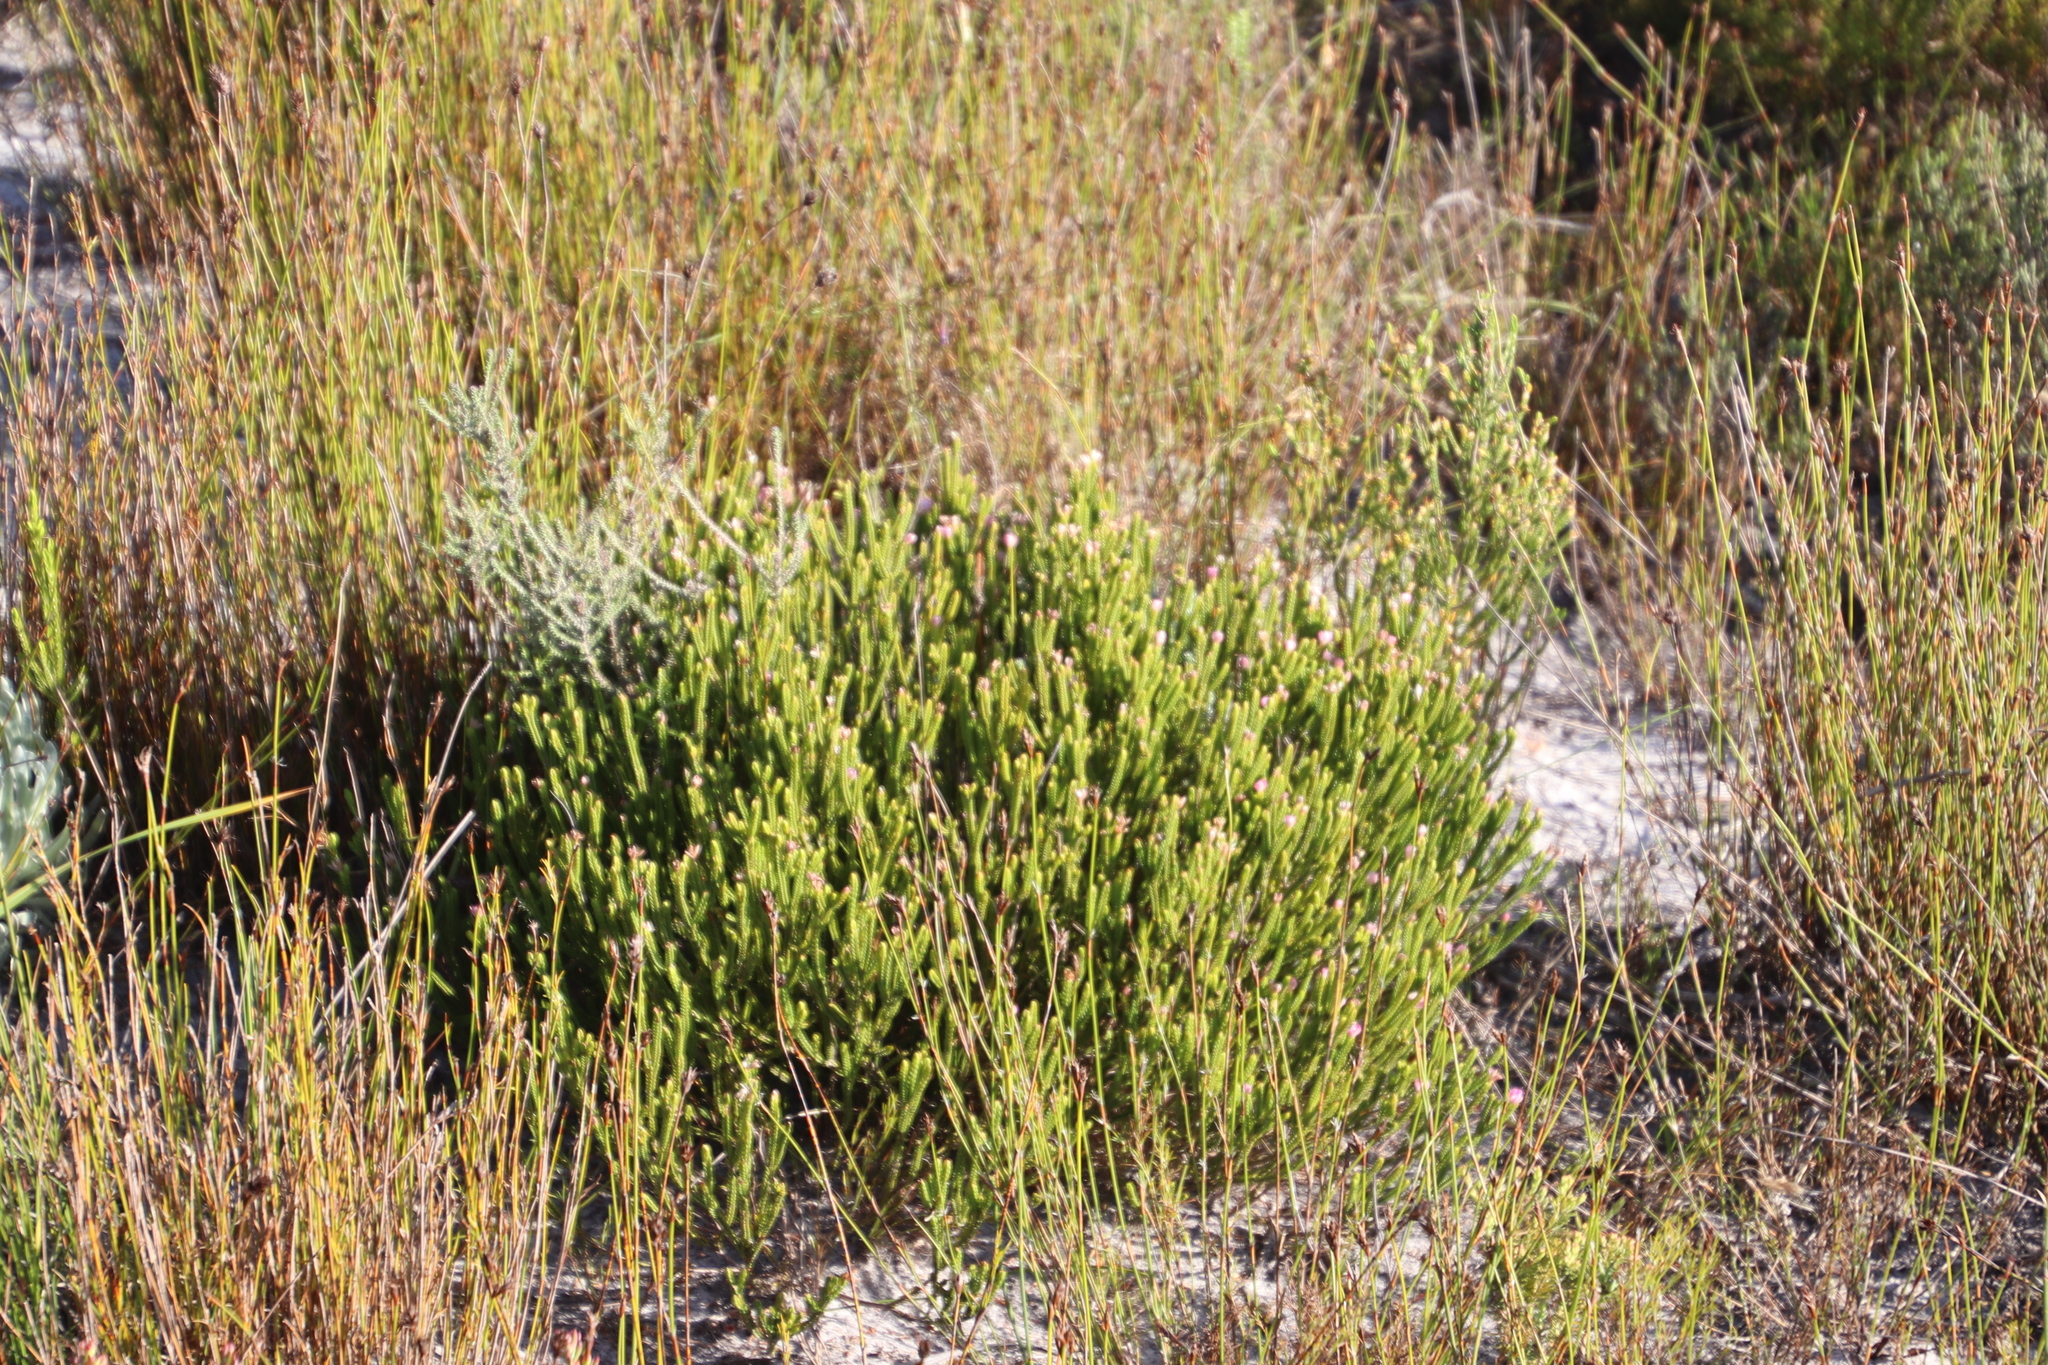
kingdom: Plantae
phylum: Tracheophyta
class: Magnoliopsida
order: Malvales
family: Thymelaeaceae
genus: Lachnaea
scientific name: Lachnaea grandiflora
